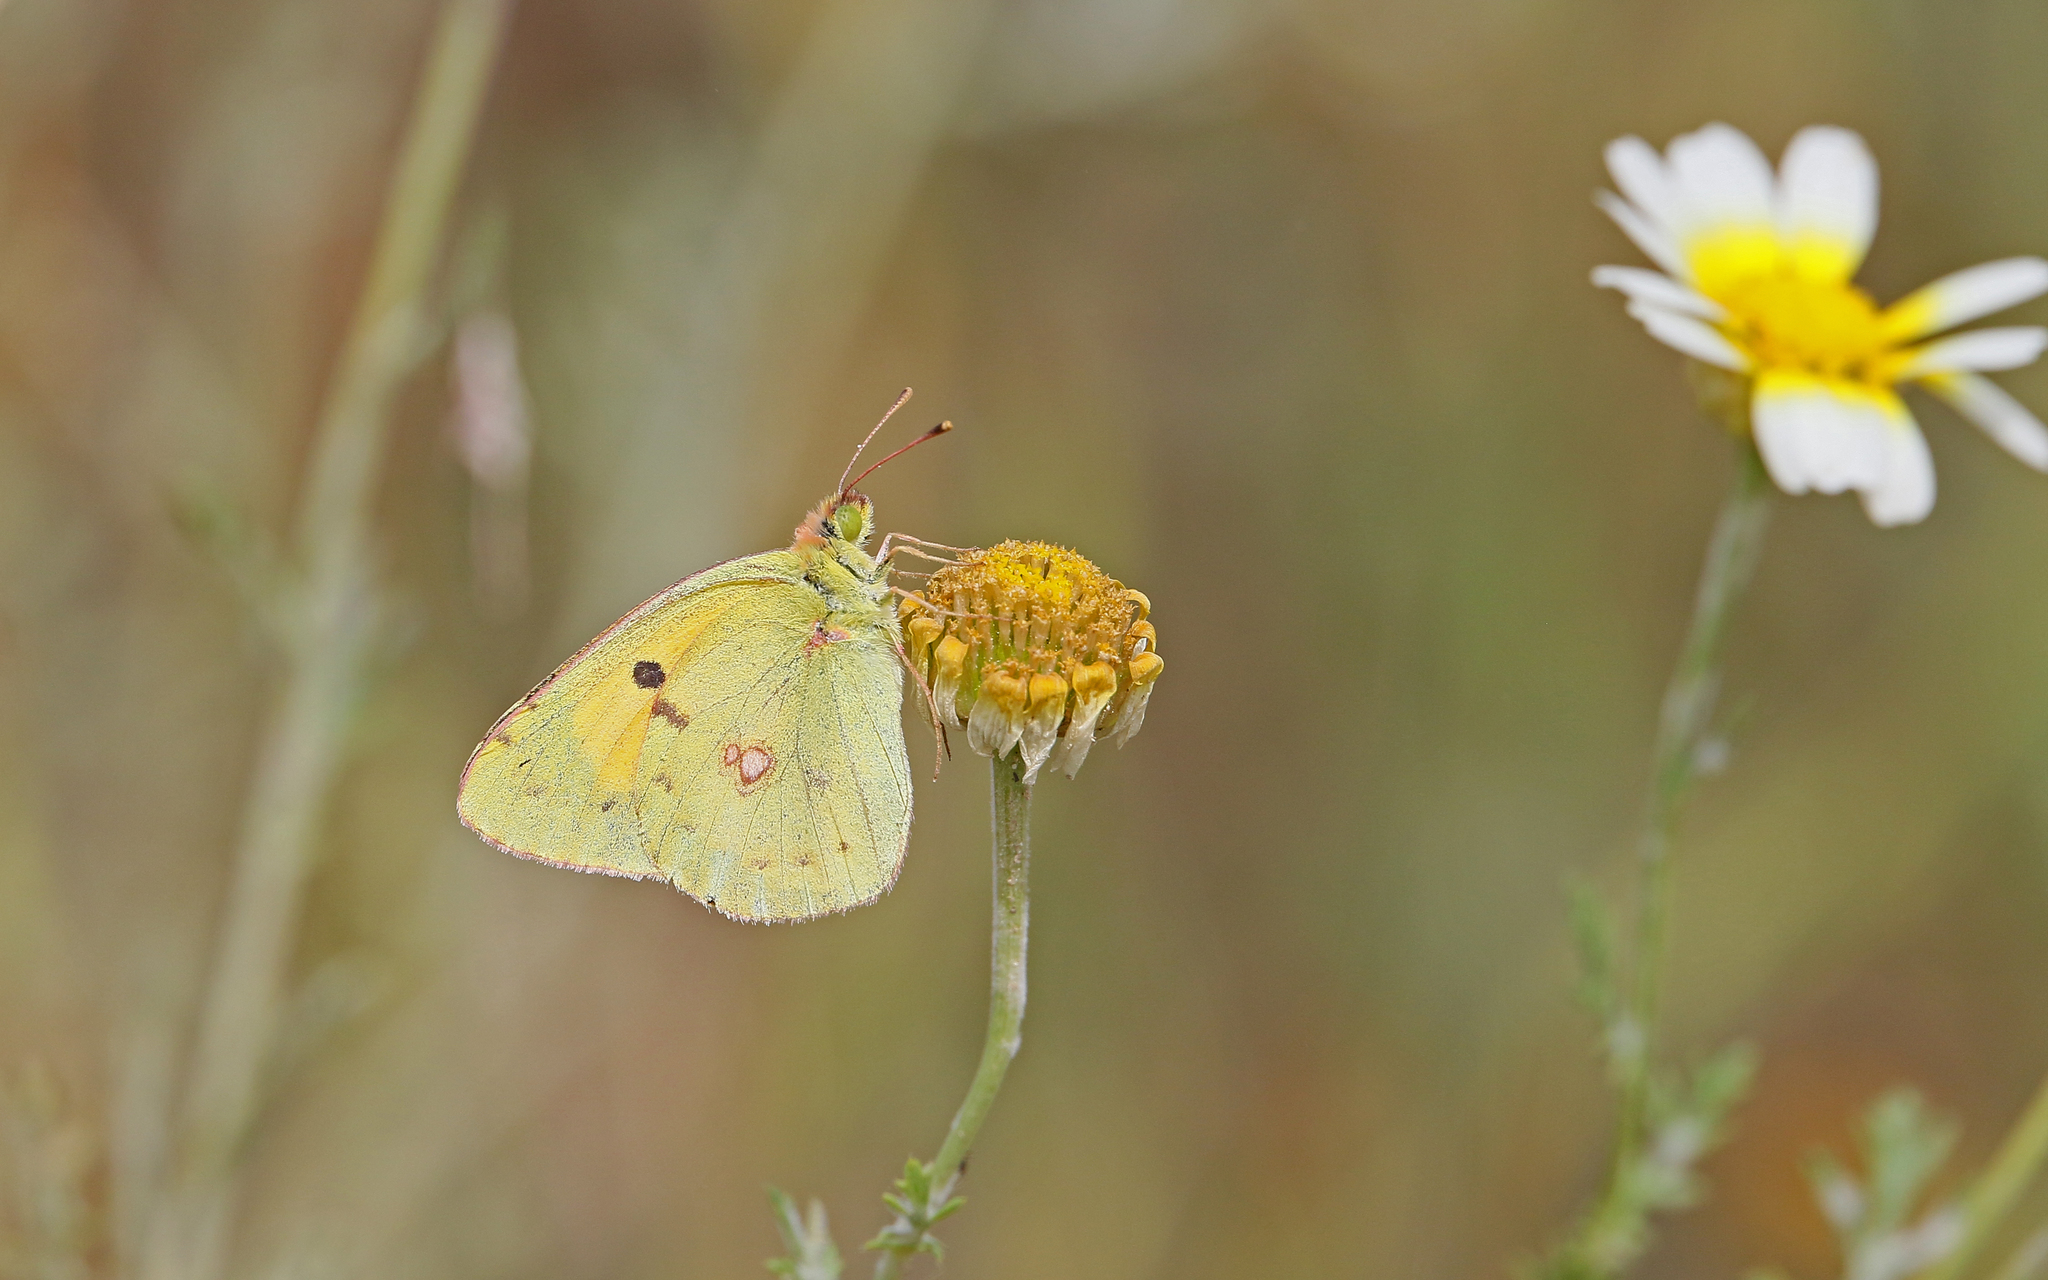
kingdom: Animalia
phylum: Arthropoda
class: Insecta
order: Lepidoptera
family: Pieridae
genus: Colias
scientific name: Colias croceus
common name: Clouded yellow
